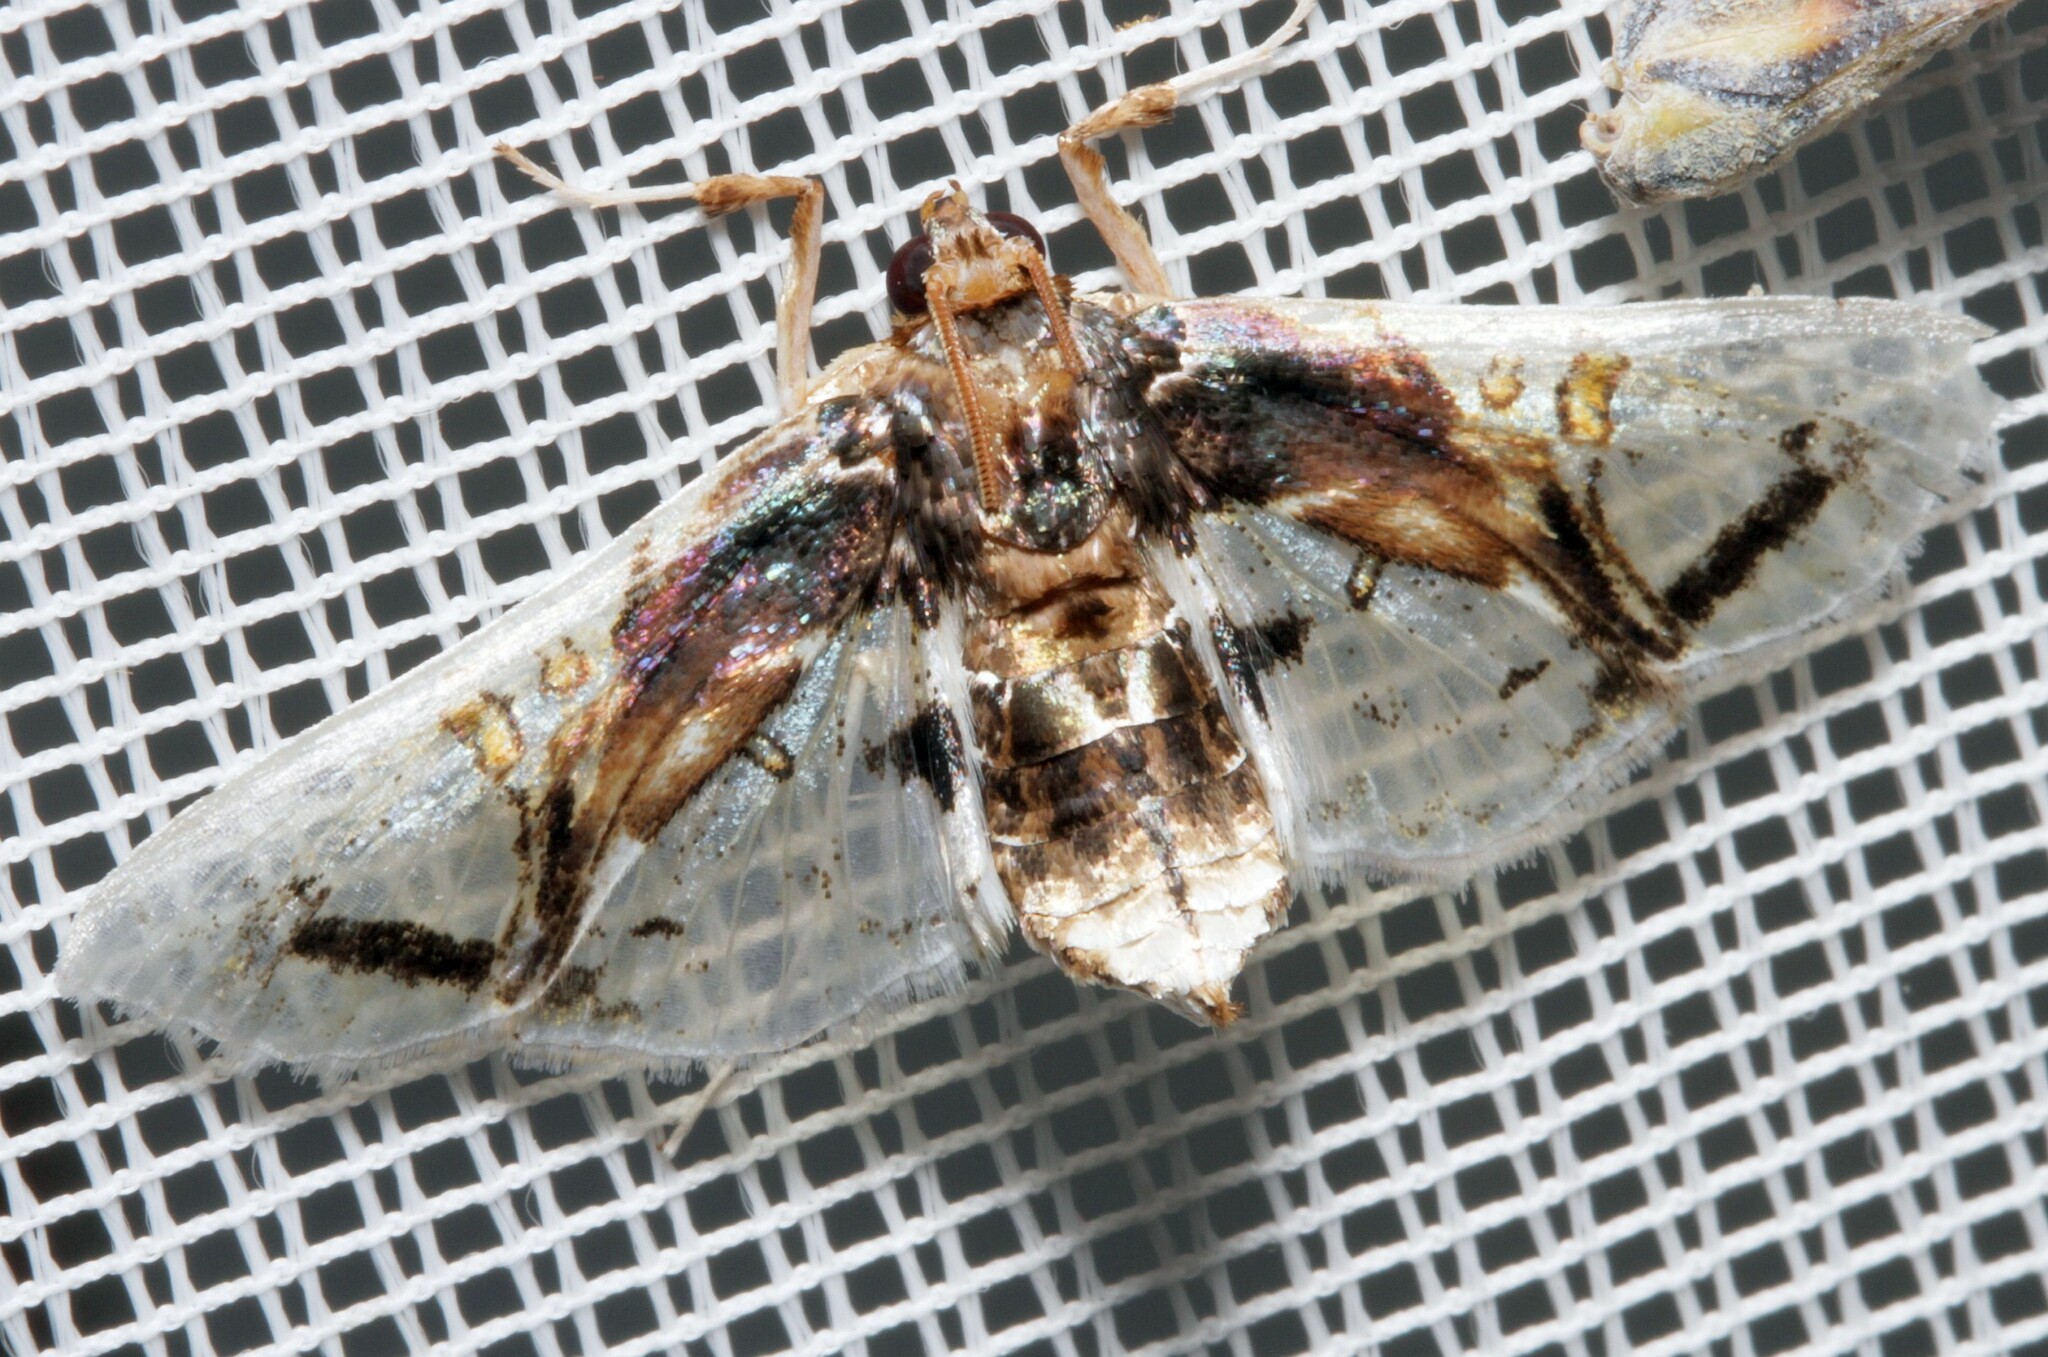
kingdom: Animalia
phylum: Arthropoda
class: Insecta
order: Lepidoptera
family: Crambidae
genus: Compacta
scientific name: Compacta nigrolinealis
